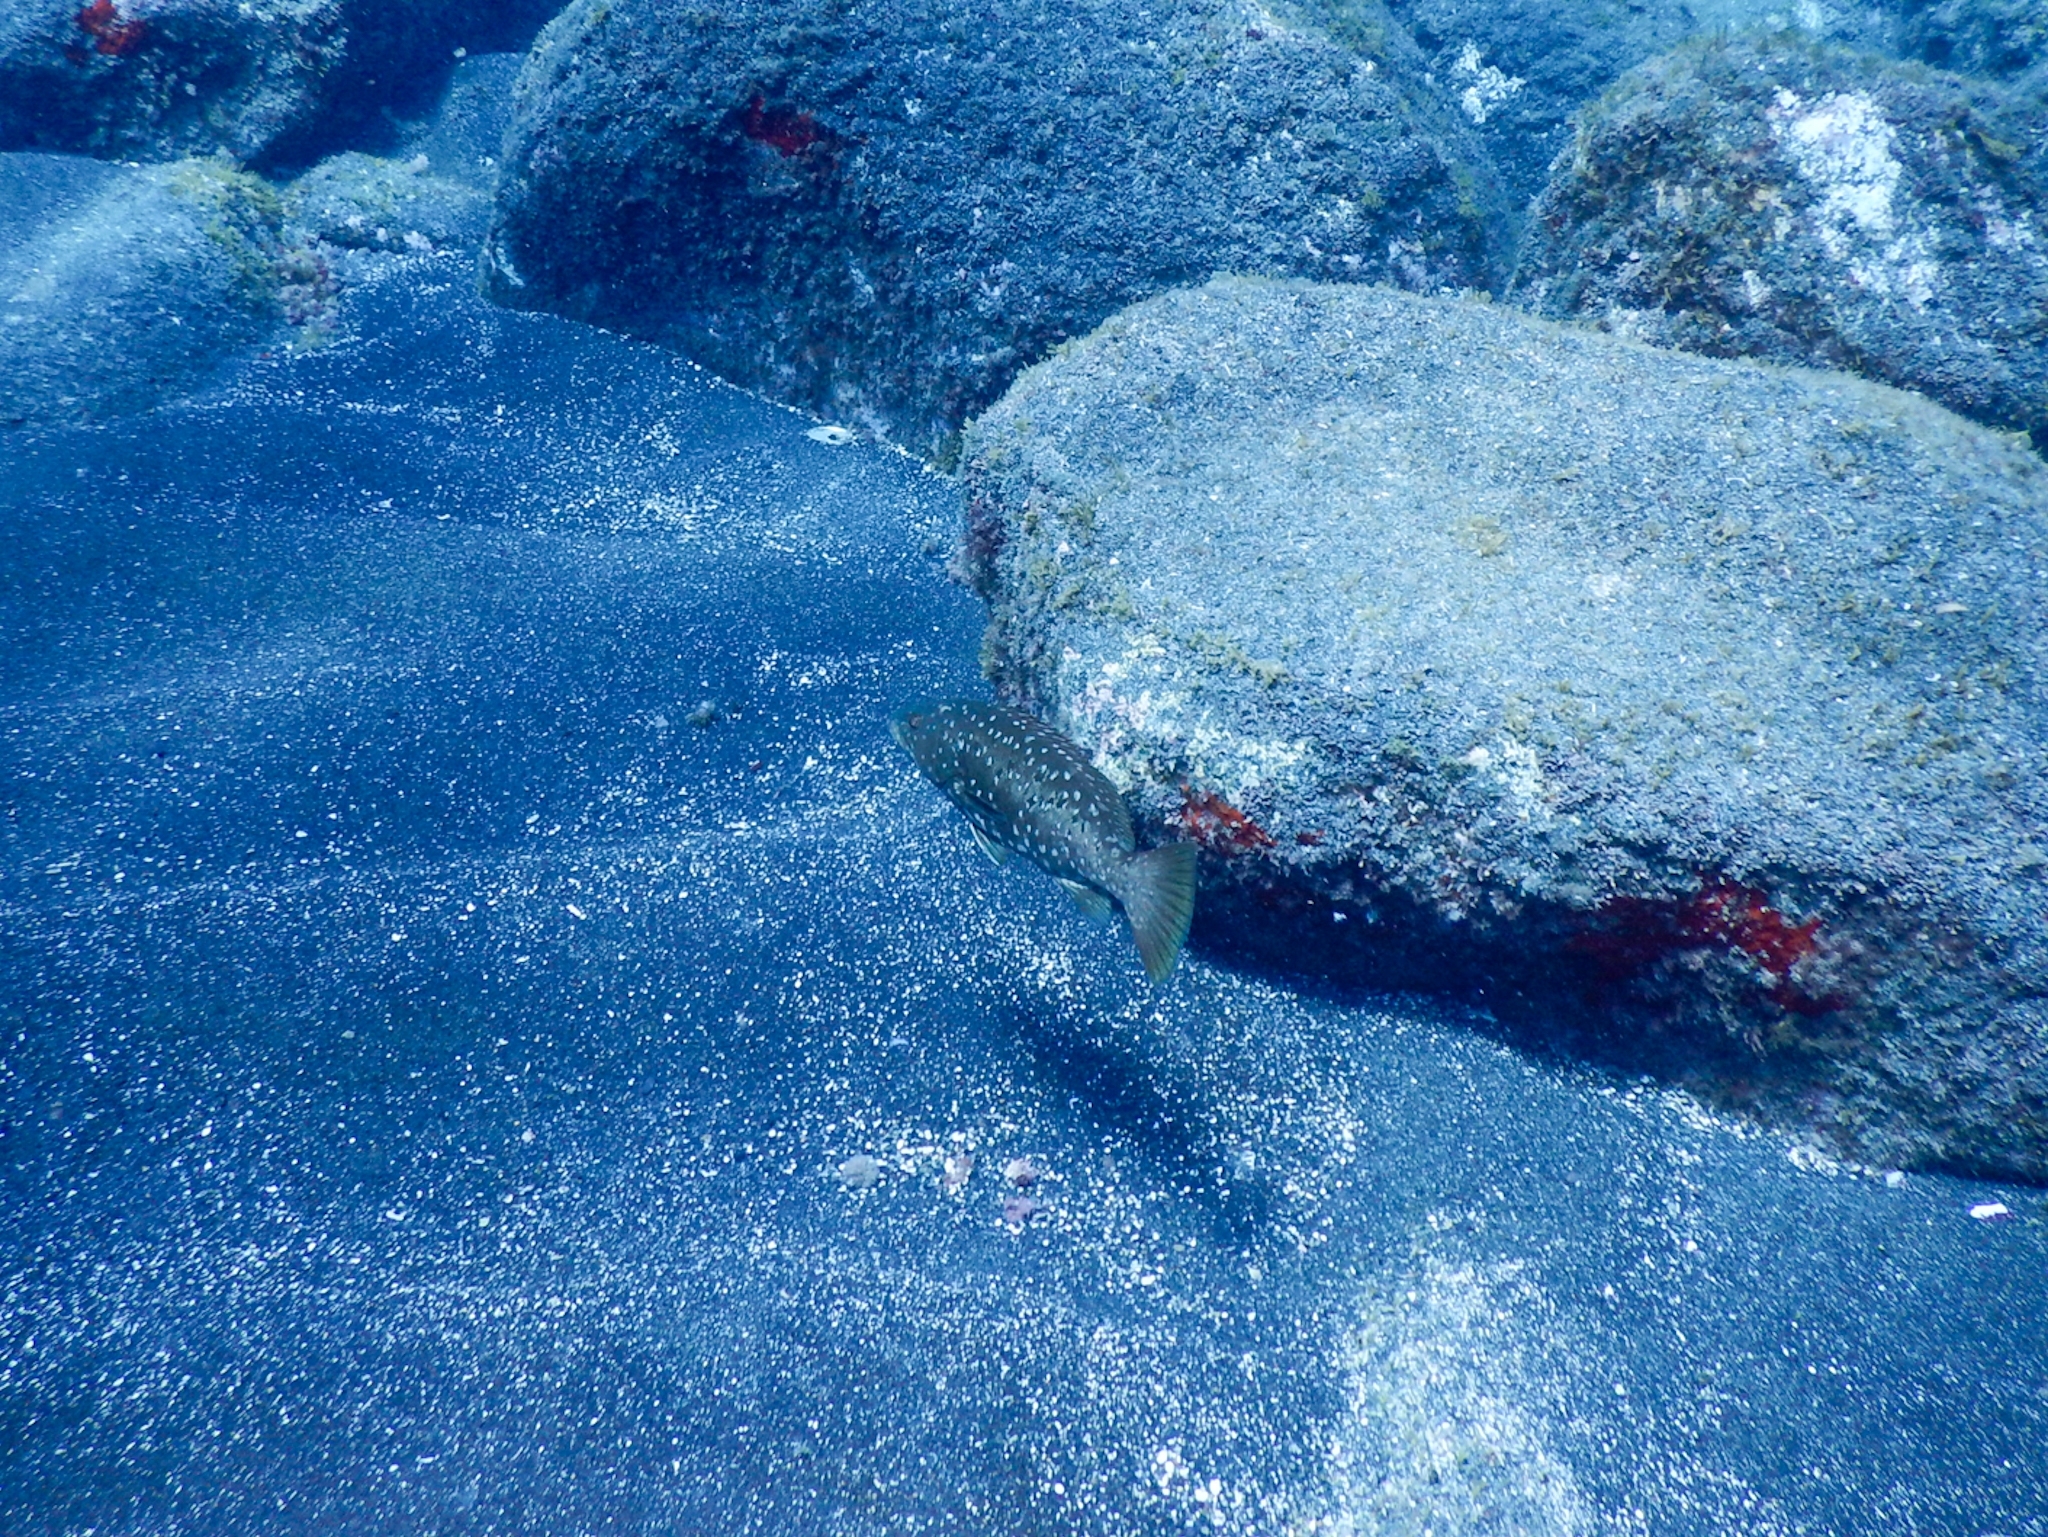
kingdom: Animalia
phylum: Chordata
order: Perciformes
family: Serranidae
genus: Mycteroperca
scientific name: Mycteroperca fusca
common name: Island grouper
